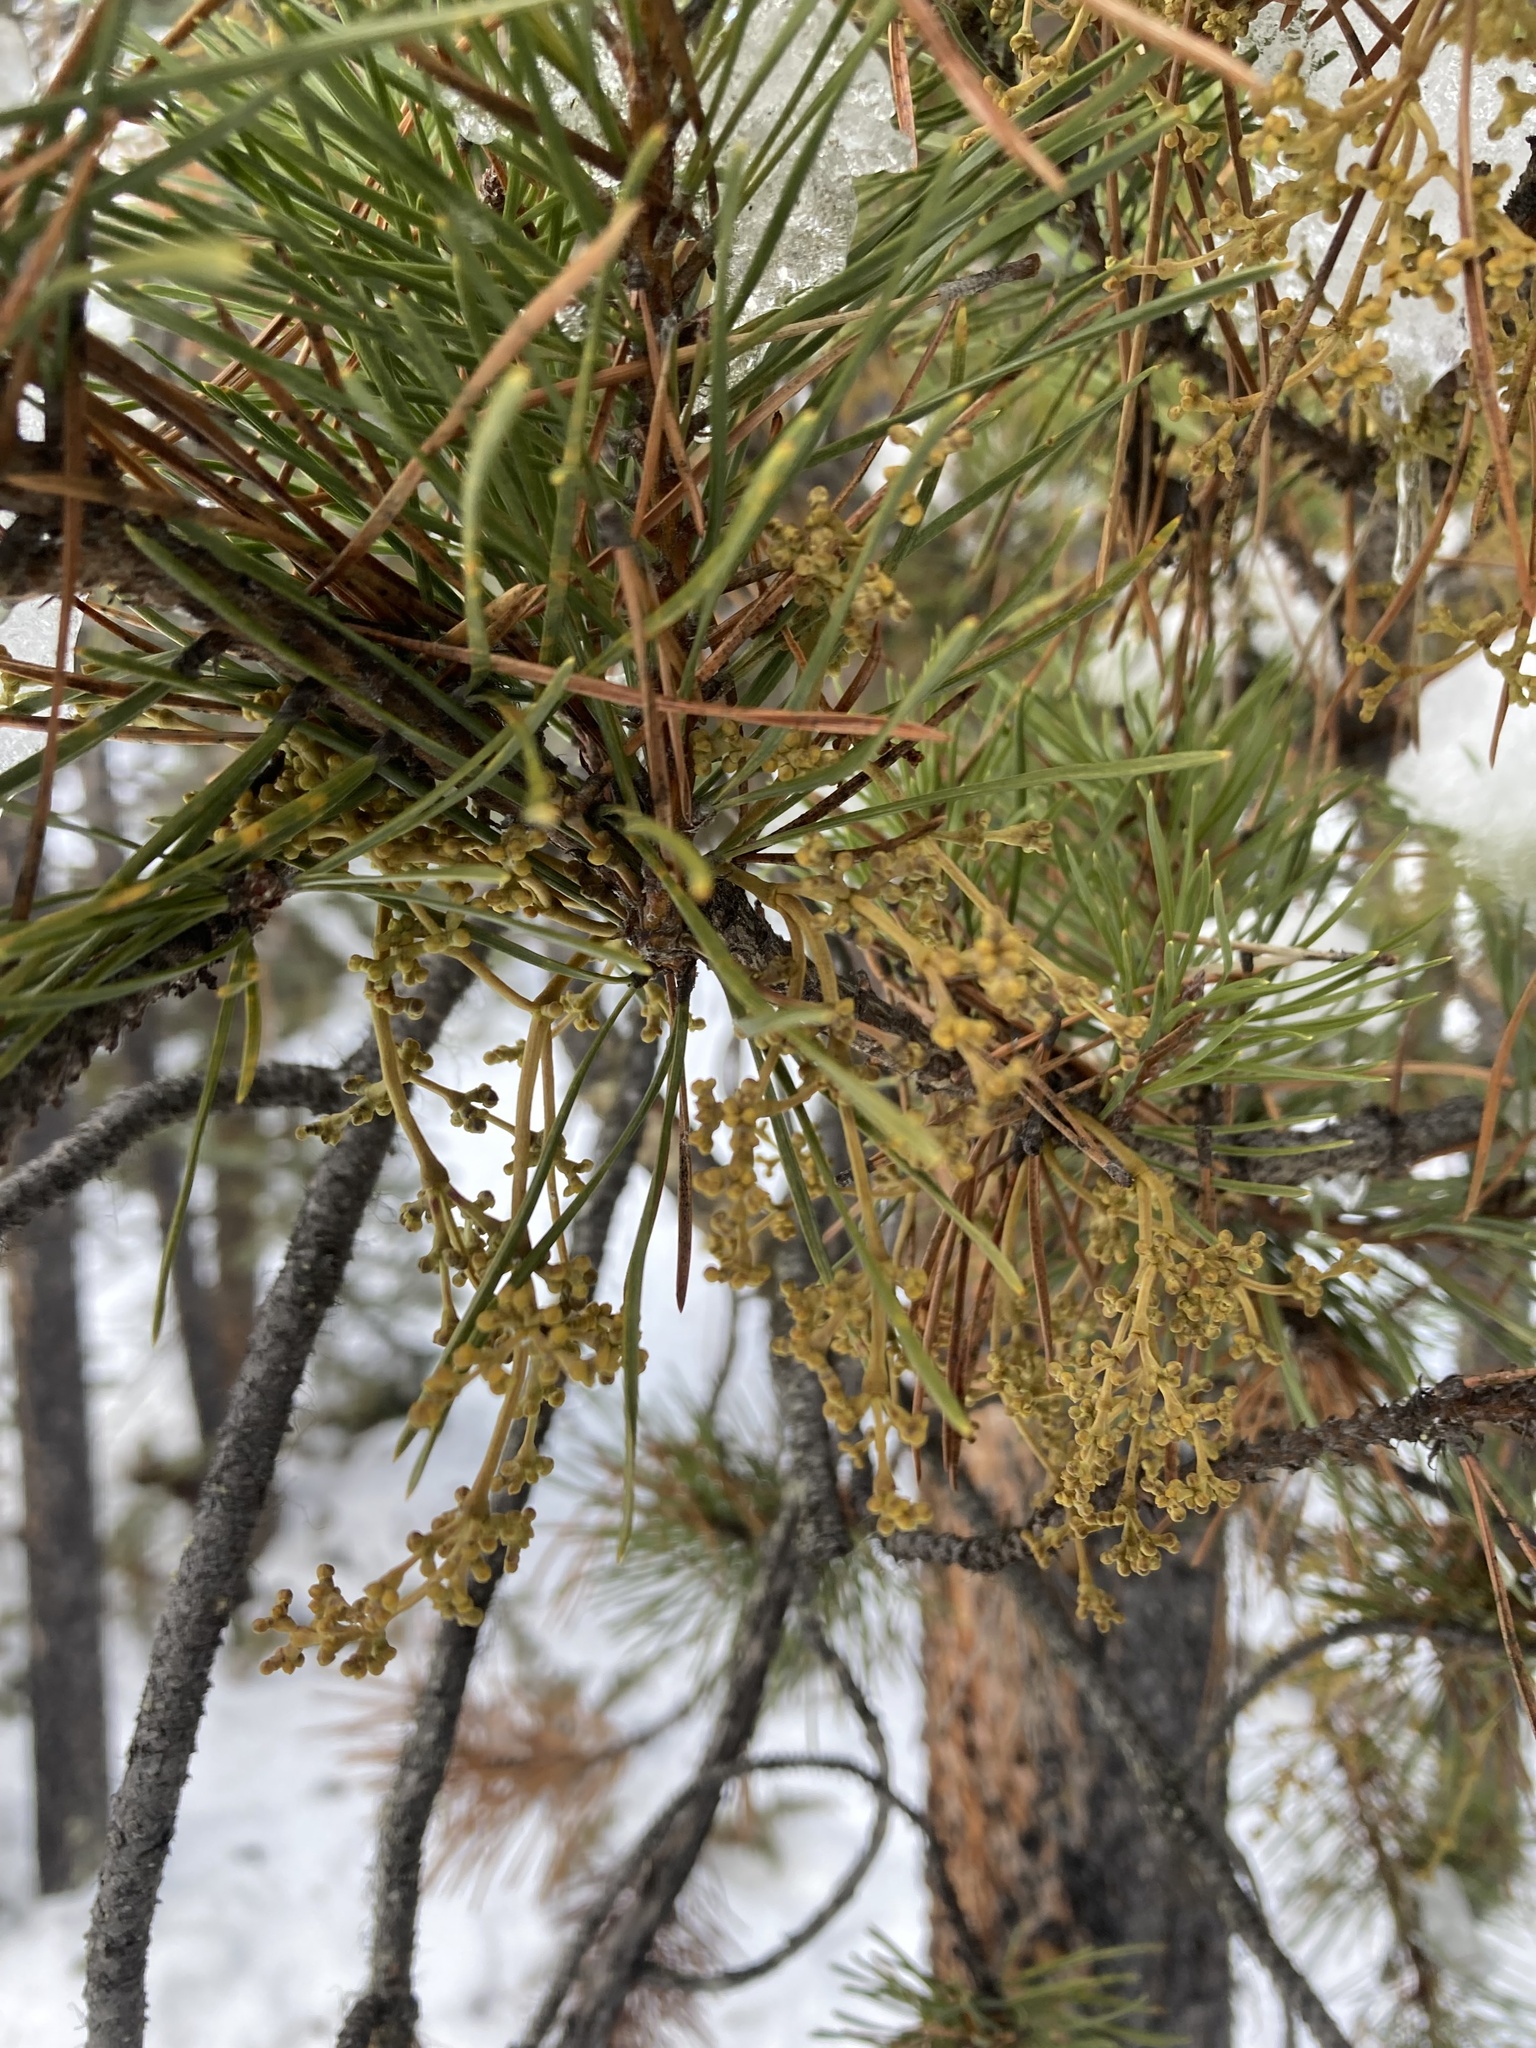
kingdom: Plantae
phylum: Tracheophyta
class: Magnoliopsida
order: Santalales
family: Viscaceae
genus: Arceuthobium
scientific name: Arceuthobium americanum
